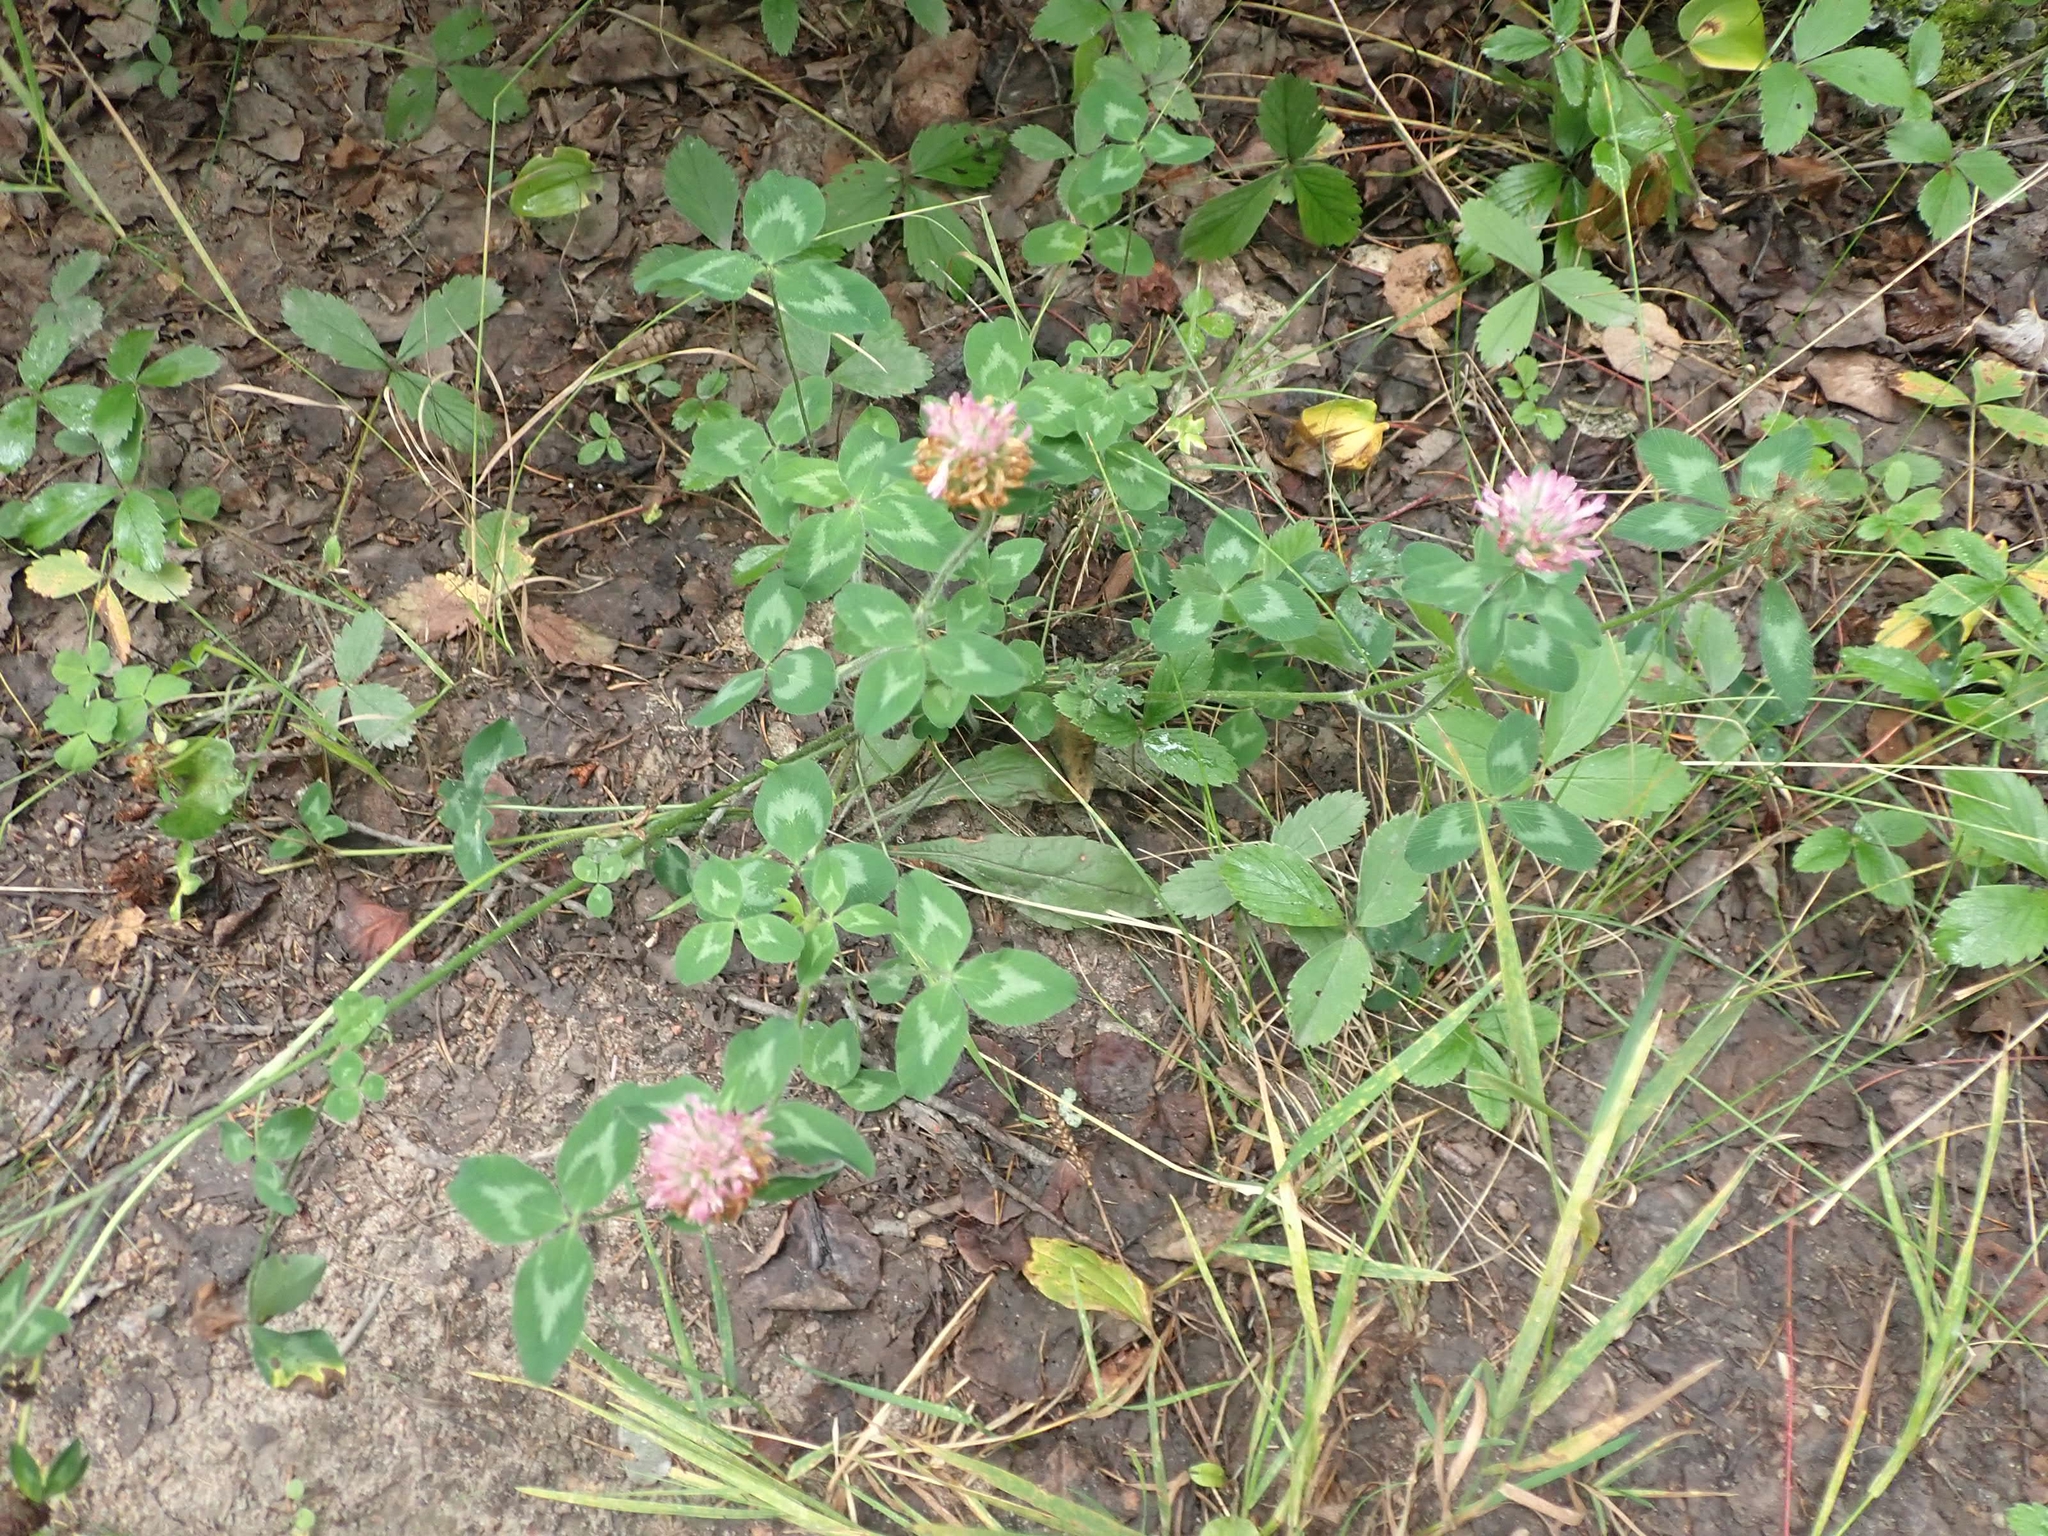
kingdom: Plantae
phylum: Tracheophyta
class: Magnoliopsida
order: Fabales
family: Fabaceae
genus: Trifolium
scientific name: Trifolium pratense
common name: Red clover
